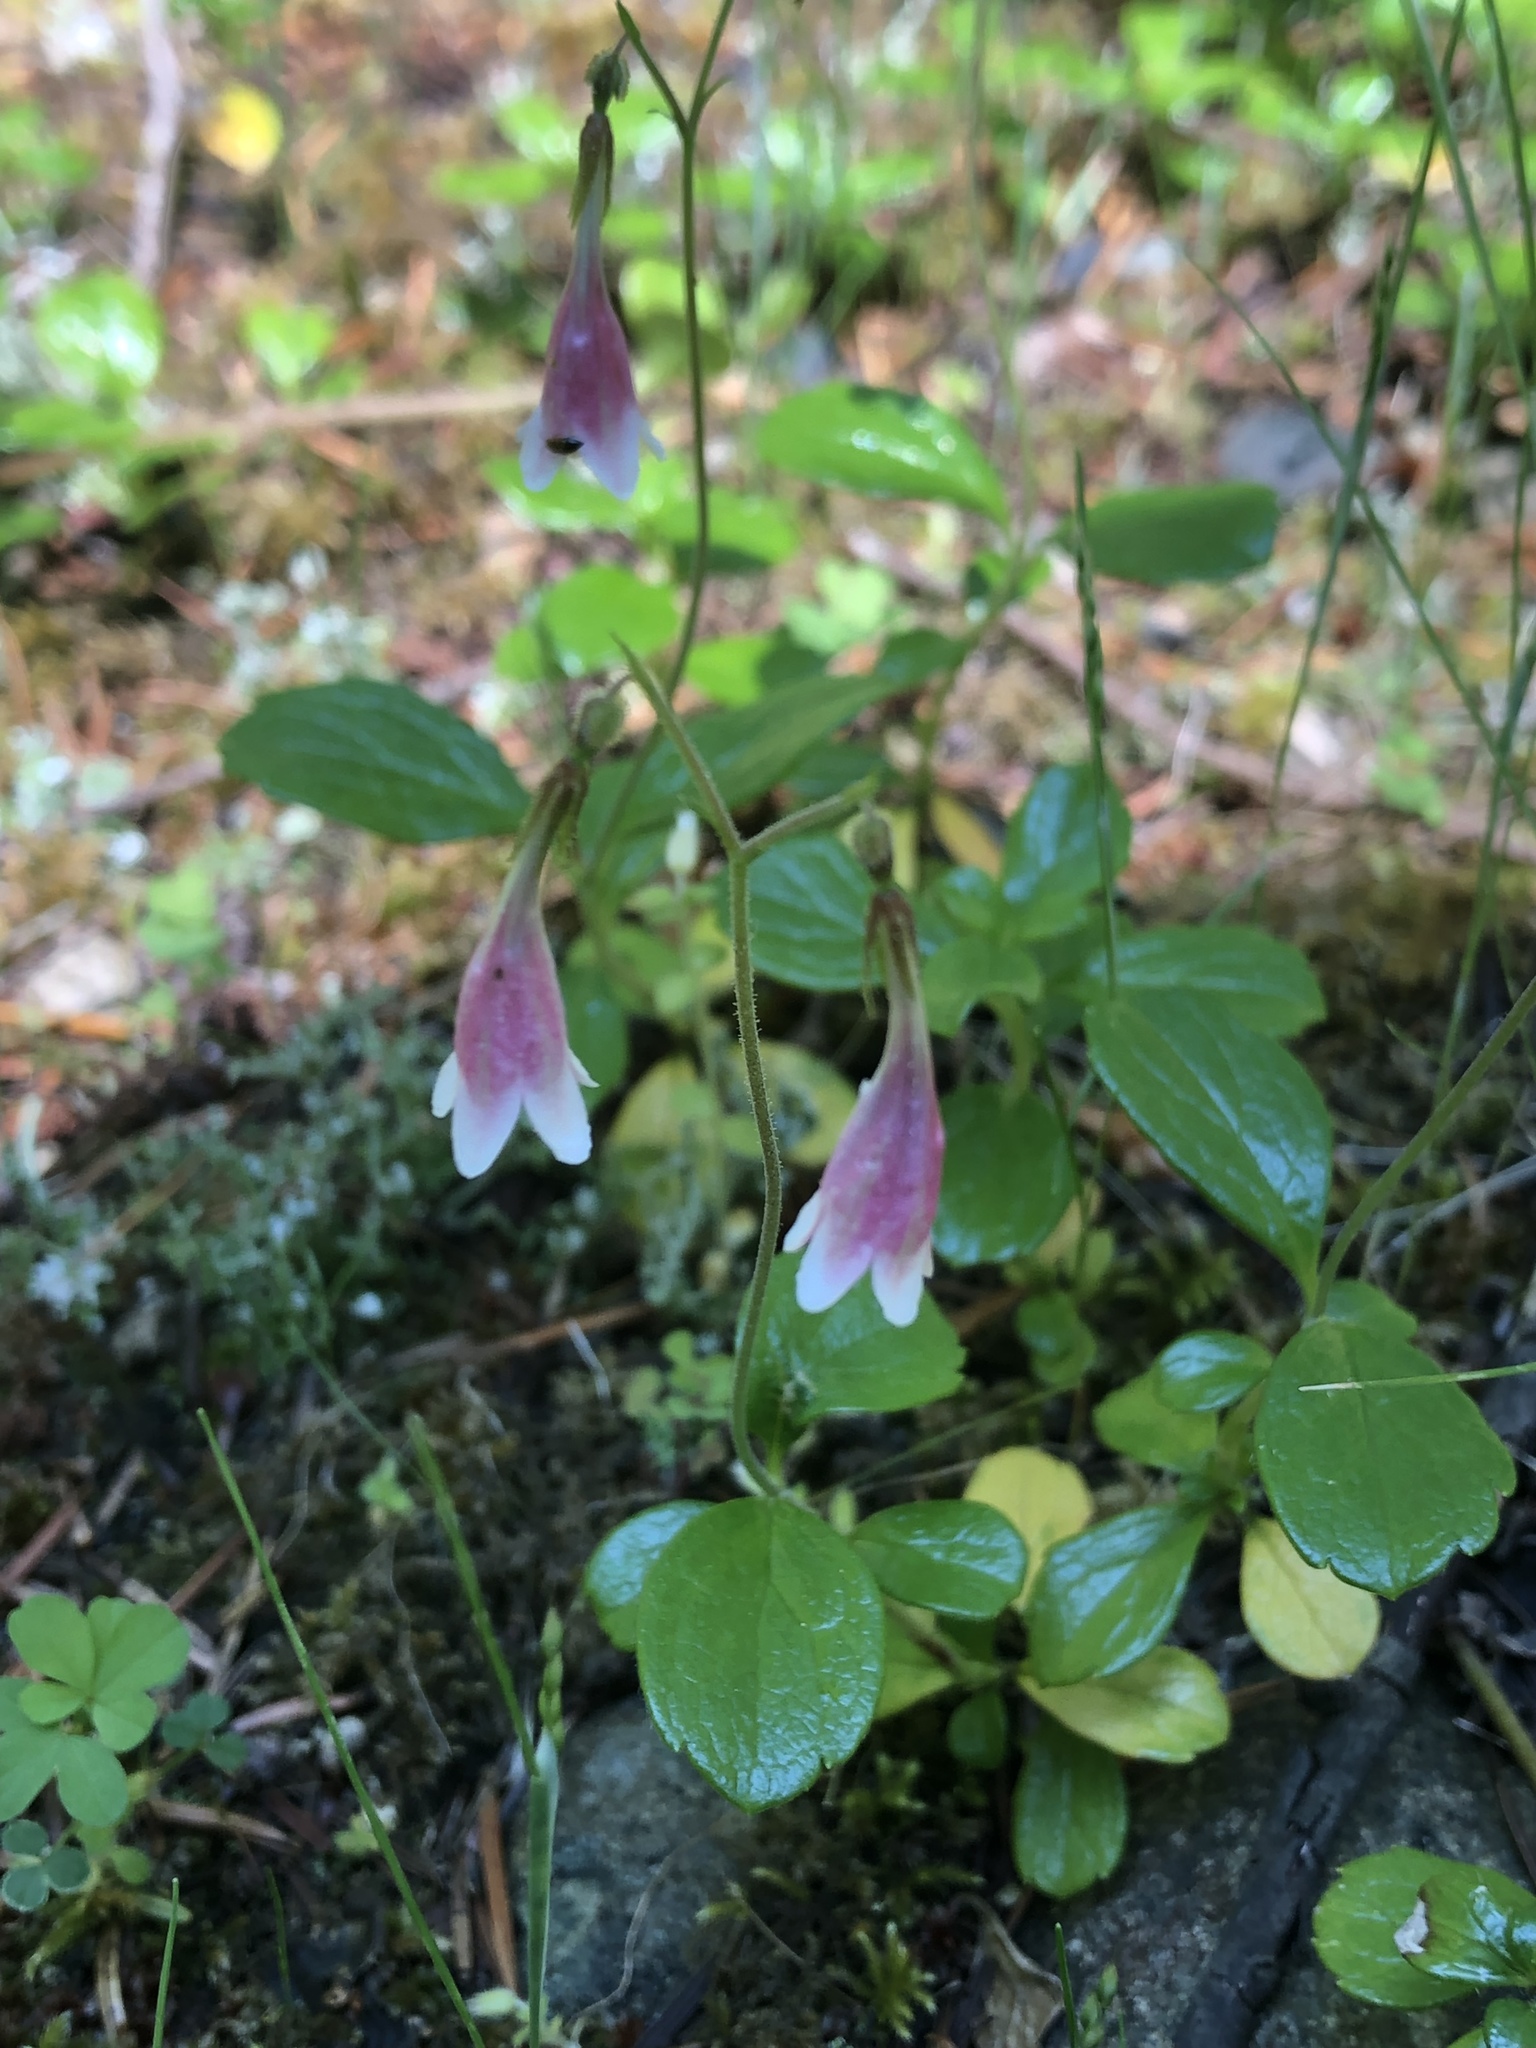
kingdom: Plantae
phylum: Tracheophyta
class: Magnoliopsida
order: Dipsacales
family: Caprifoliaceae
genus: Linnaea
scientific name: Linnaea borealis
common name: Twinflower
